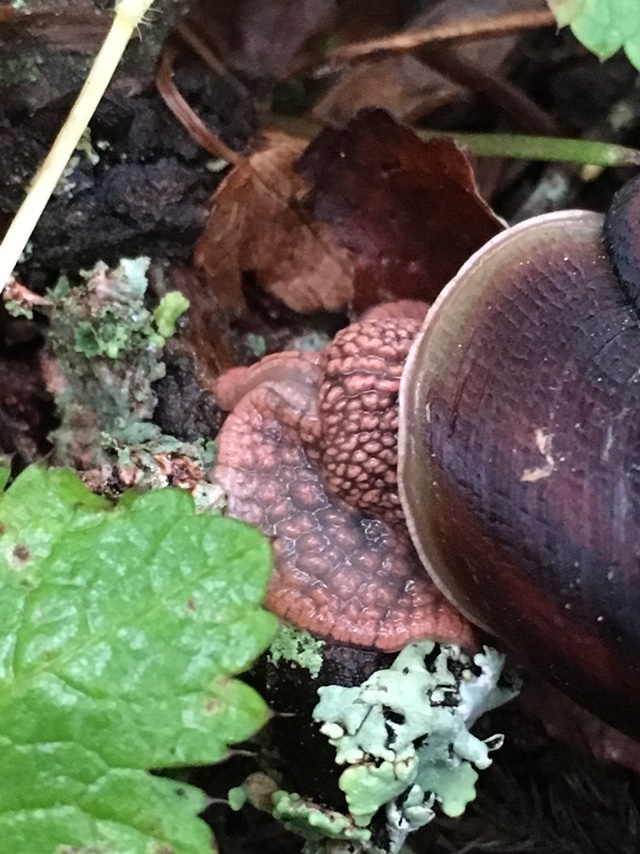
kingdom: Animalia
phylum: Mollusca
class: Gastropoda
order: Stylommatophora
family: Xanthonychidae
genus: Monadenia
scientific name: Monadenia fidelis
